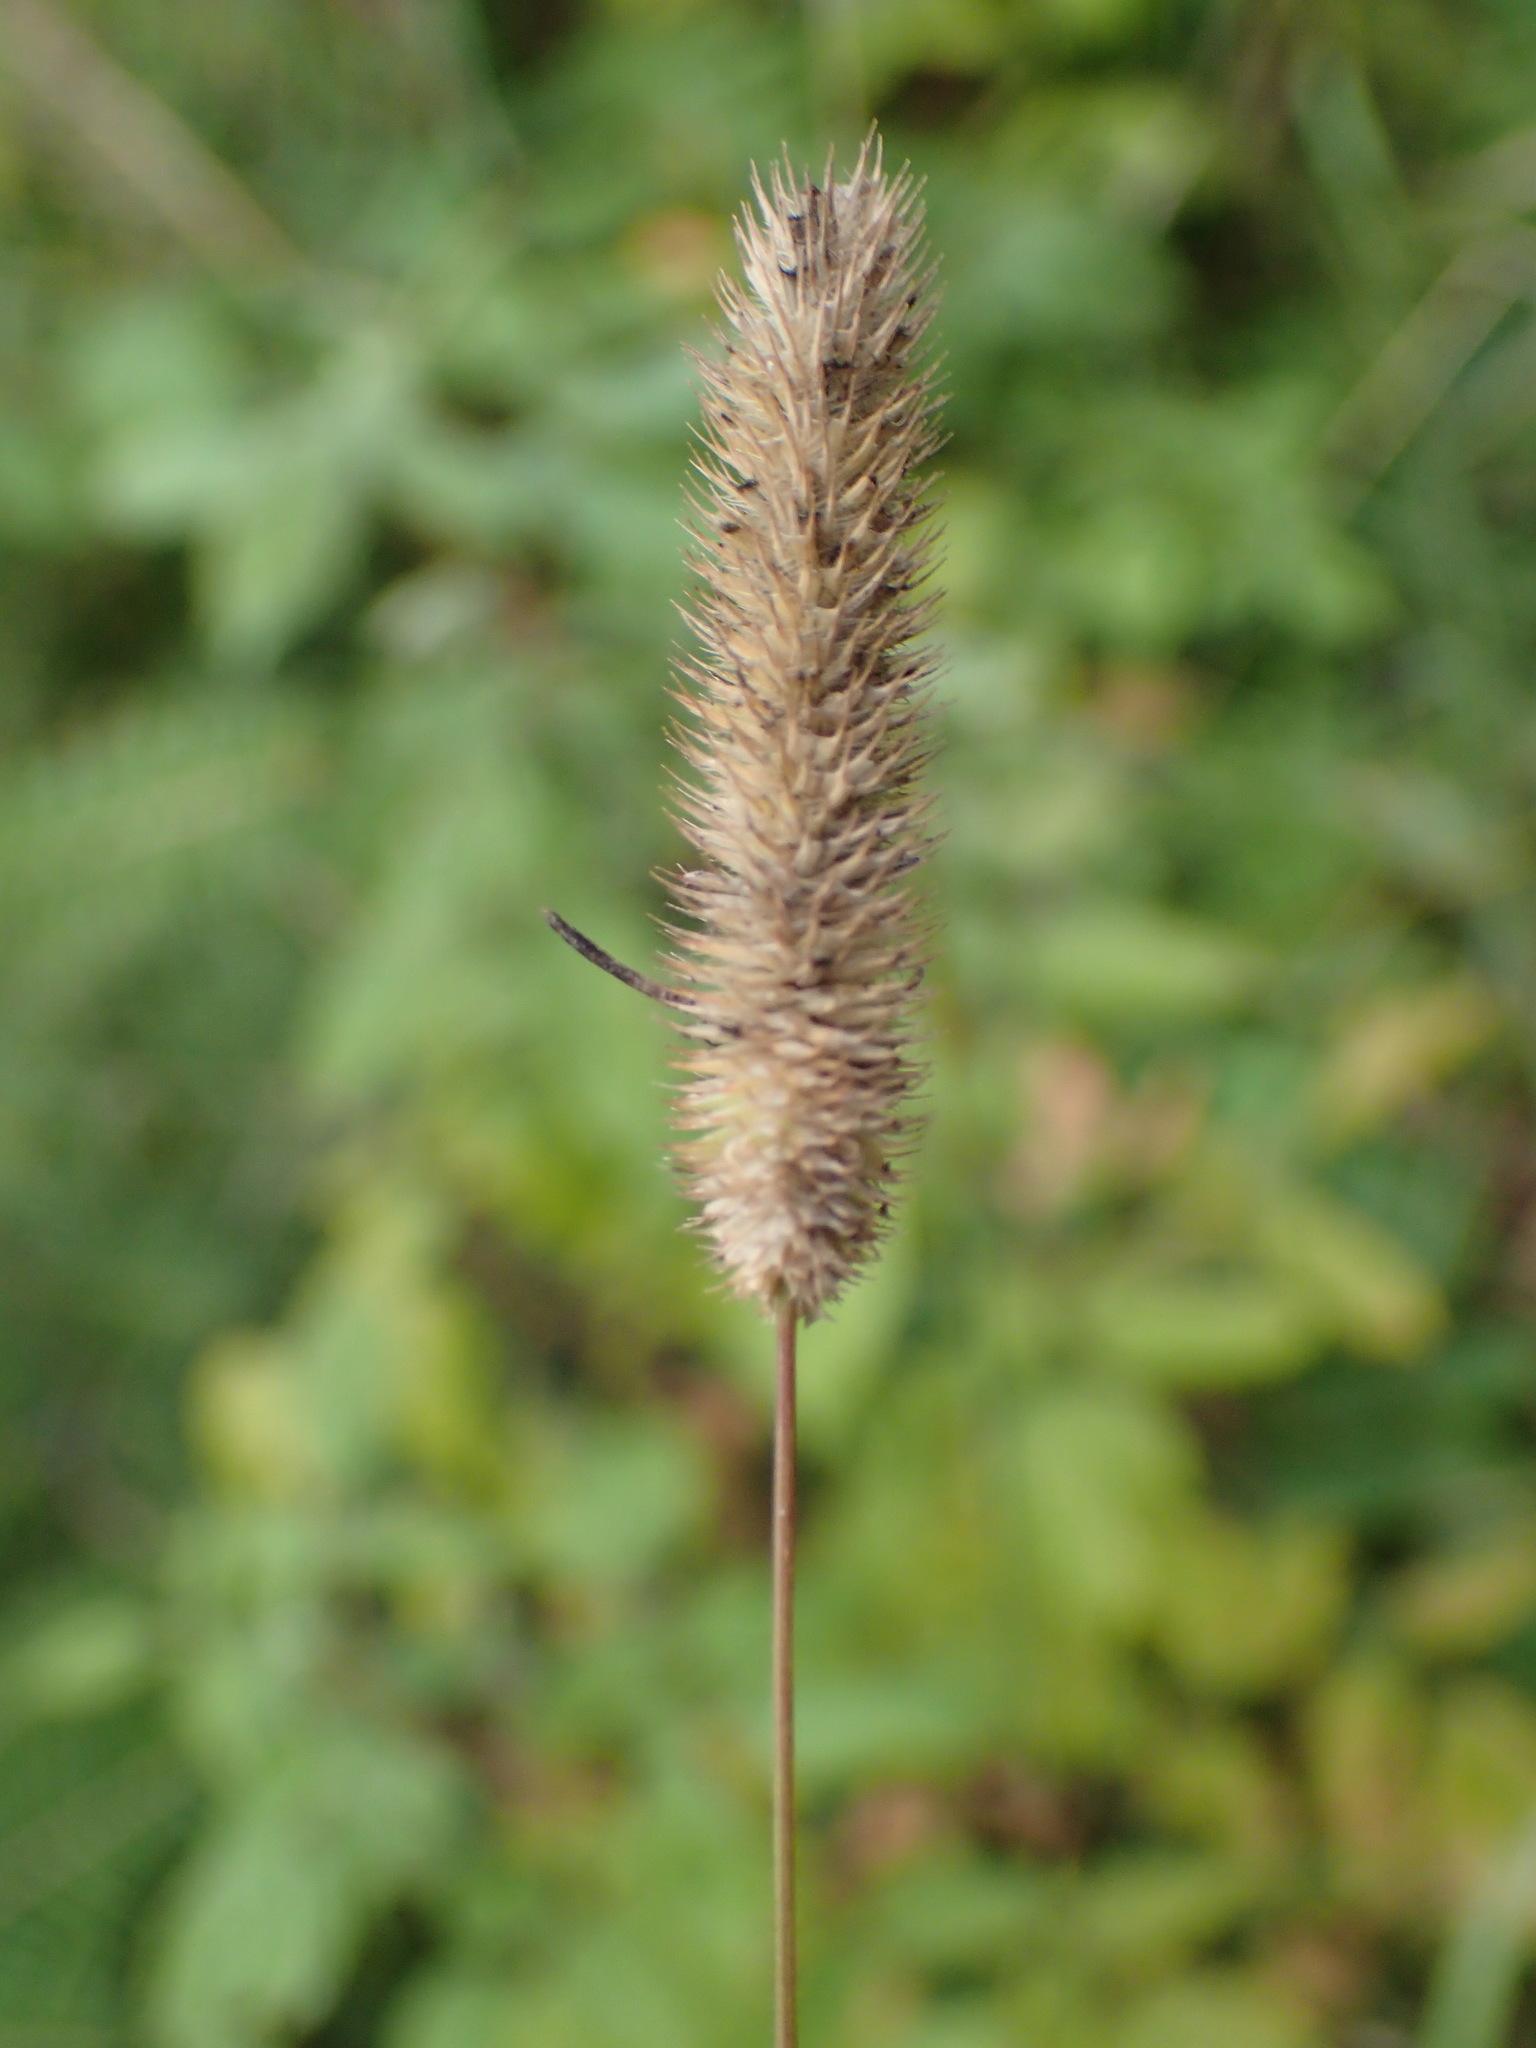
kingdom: Plantae
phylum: Tracheophyta
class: Liliopsida
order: Poales
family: Poaceae
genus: Phleum
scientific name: Phleum pratense
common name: Timothy grass
